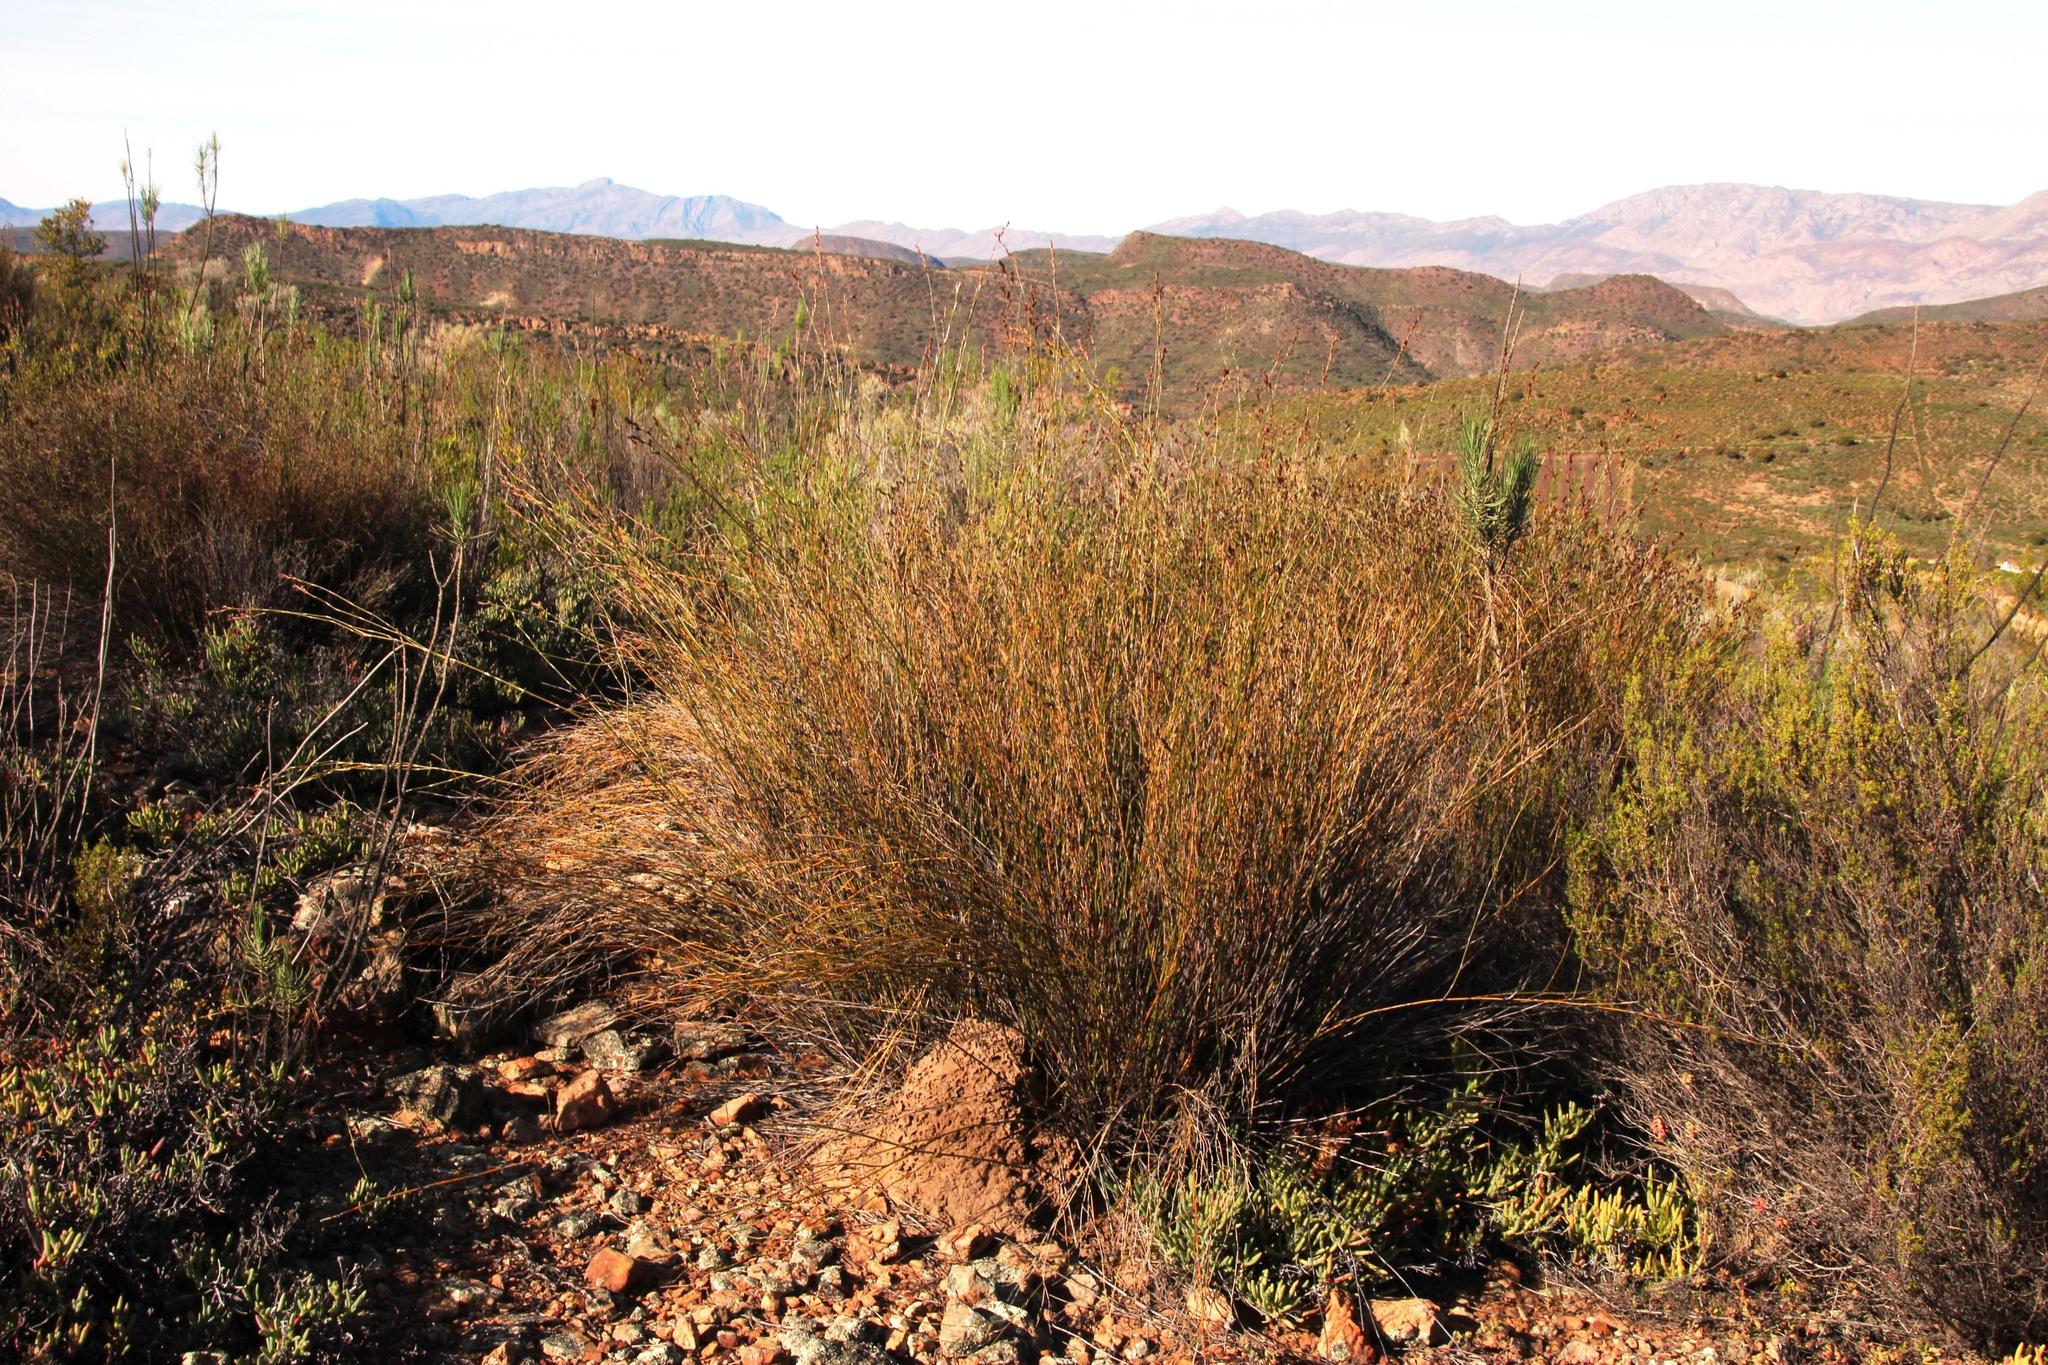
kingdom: Plantae
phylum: Tracheophyta
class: Liliopsida
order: Poales
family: Restionaceae
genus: Restio
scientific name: Restio luxurians
